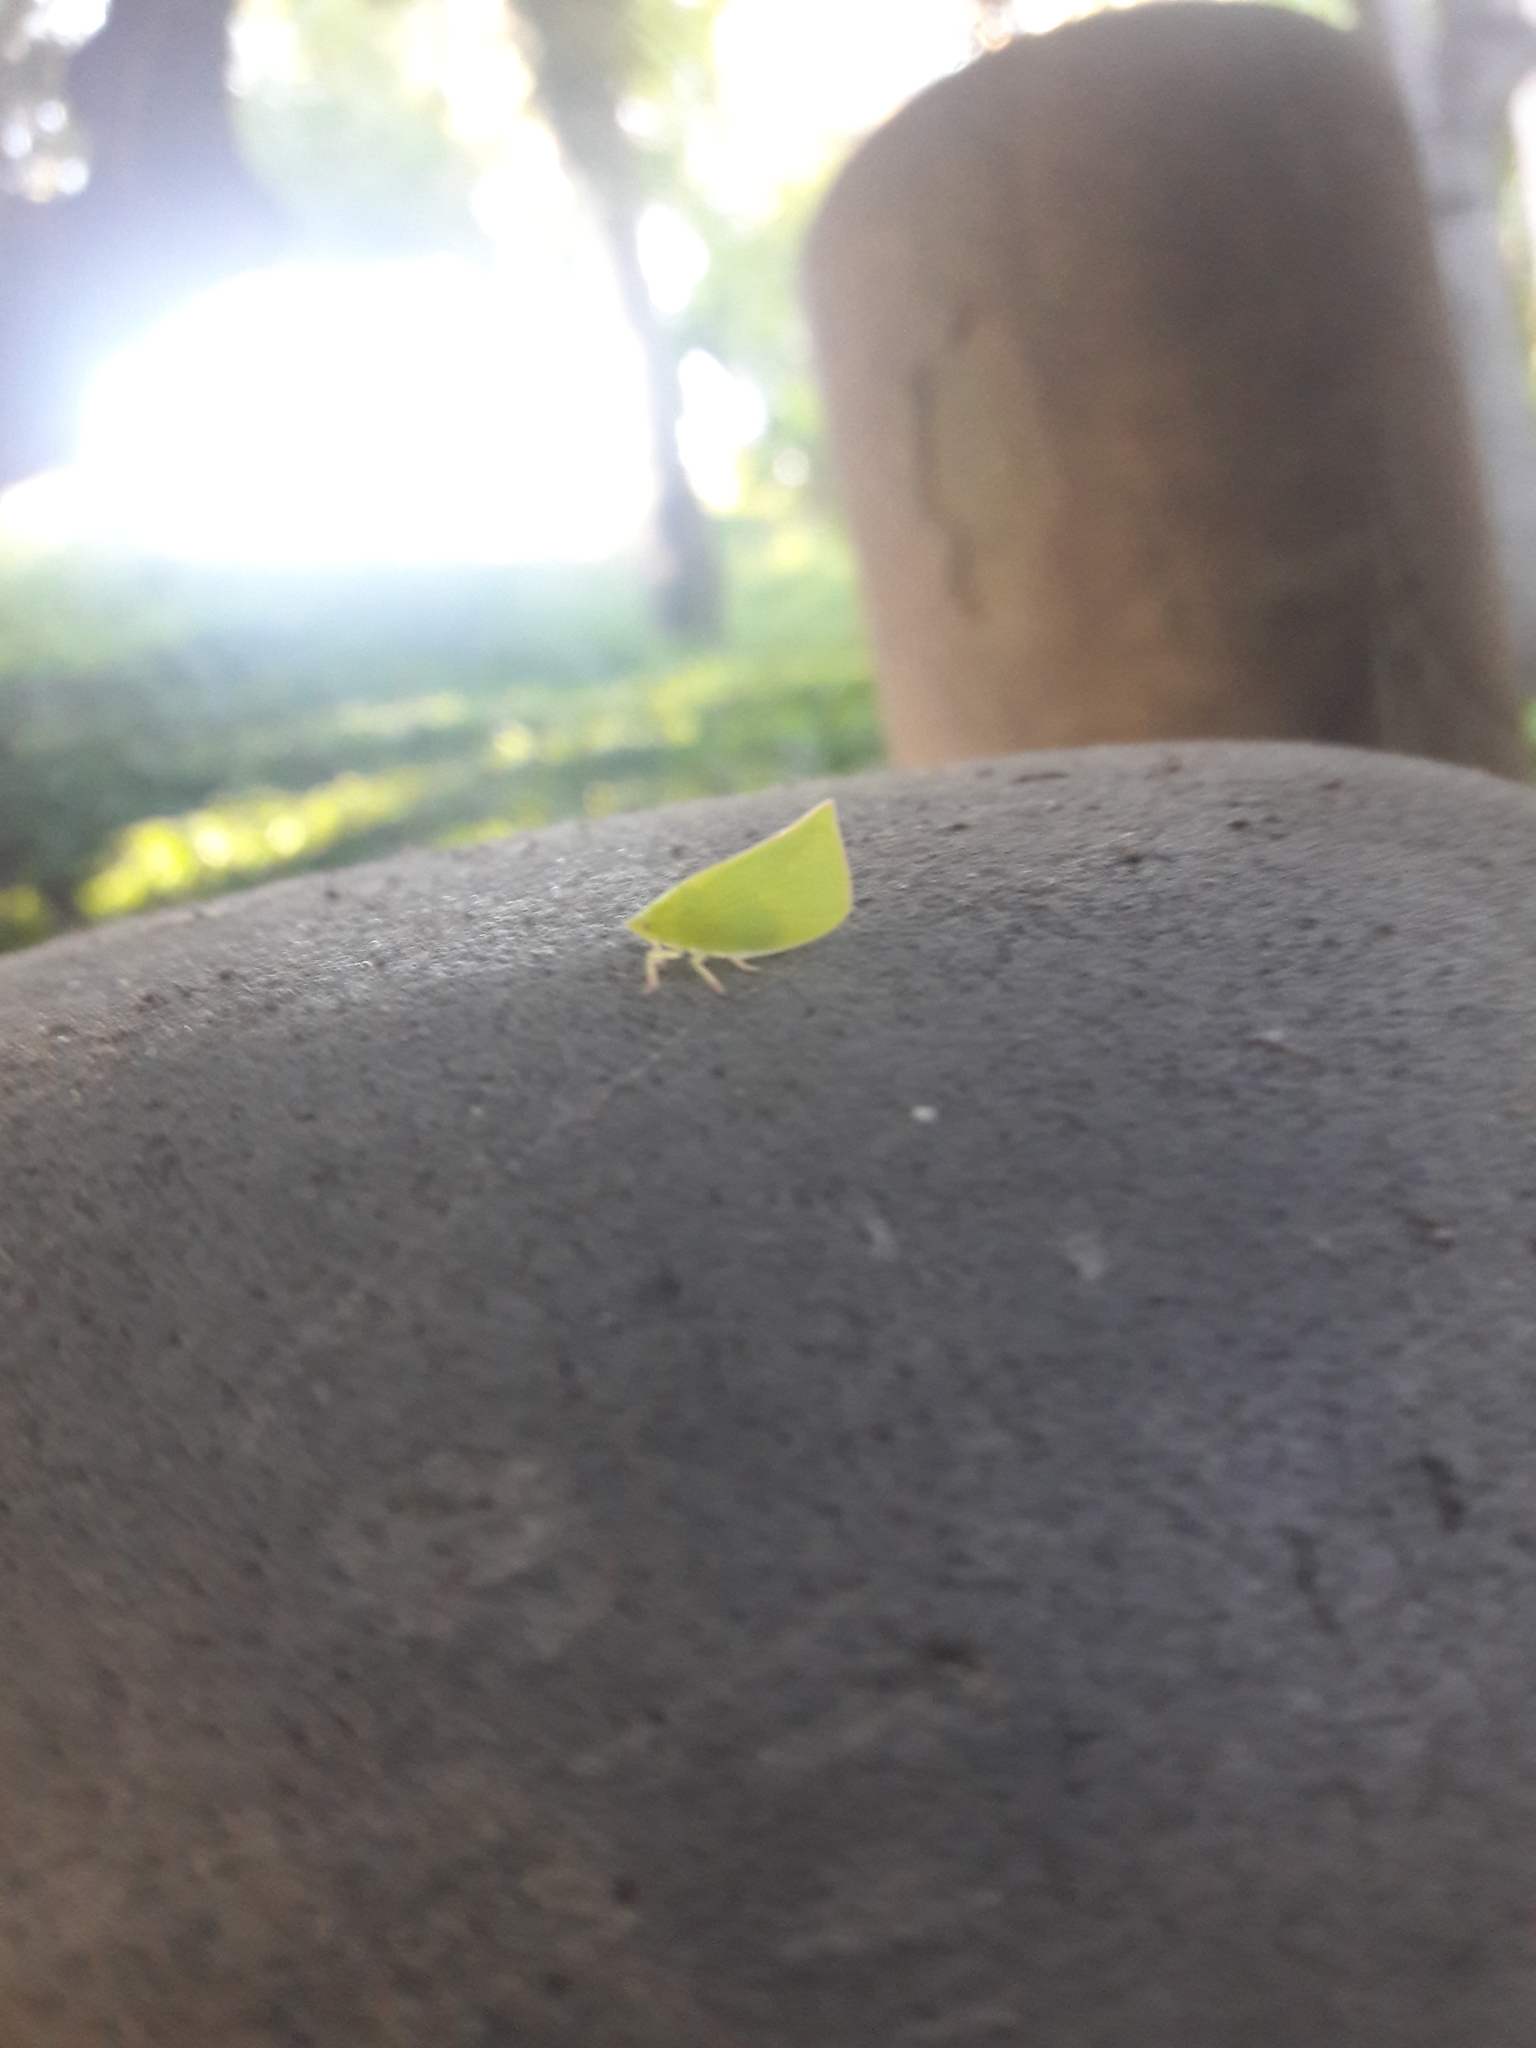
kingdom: Animalia
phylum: Arthropoda
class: Insecta
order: Hemiptera
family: Flatidae
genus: Siphanta
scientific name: Siphanta acuta
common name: Torpedo bug
